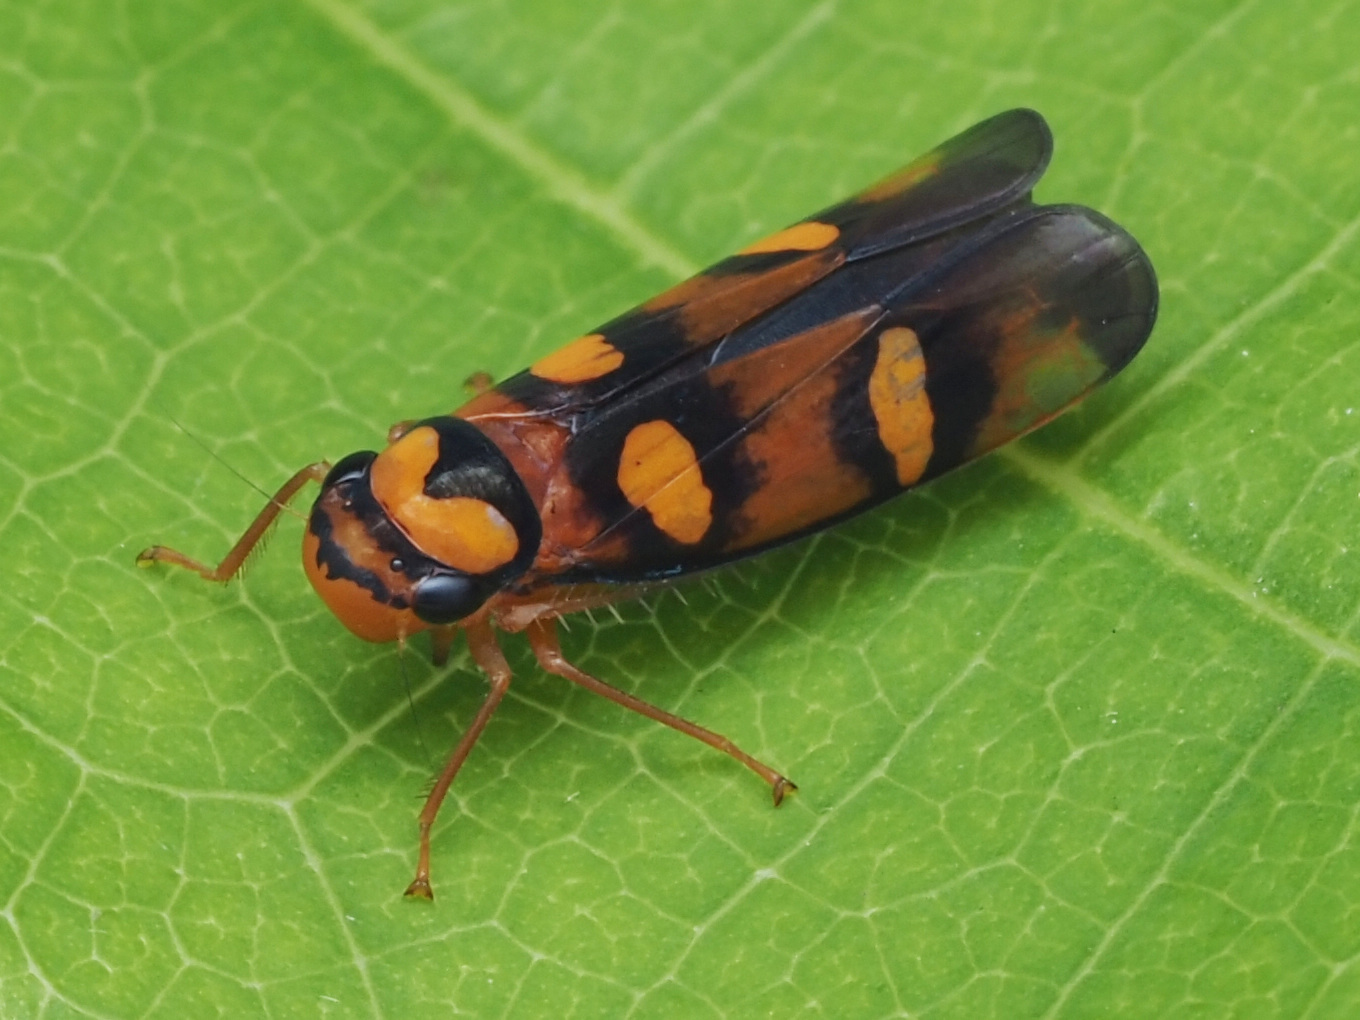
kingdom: Animalia
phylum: Arthropoda
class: Insecta
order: Hemiptera
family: Cicadellidae
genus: Pawiloma
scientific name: Pawiloma jucunda
